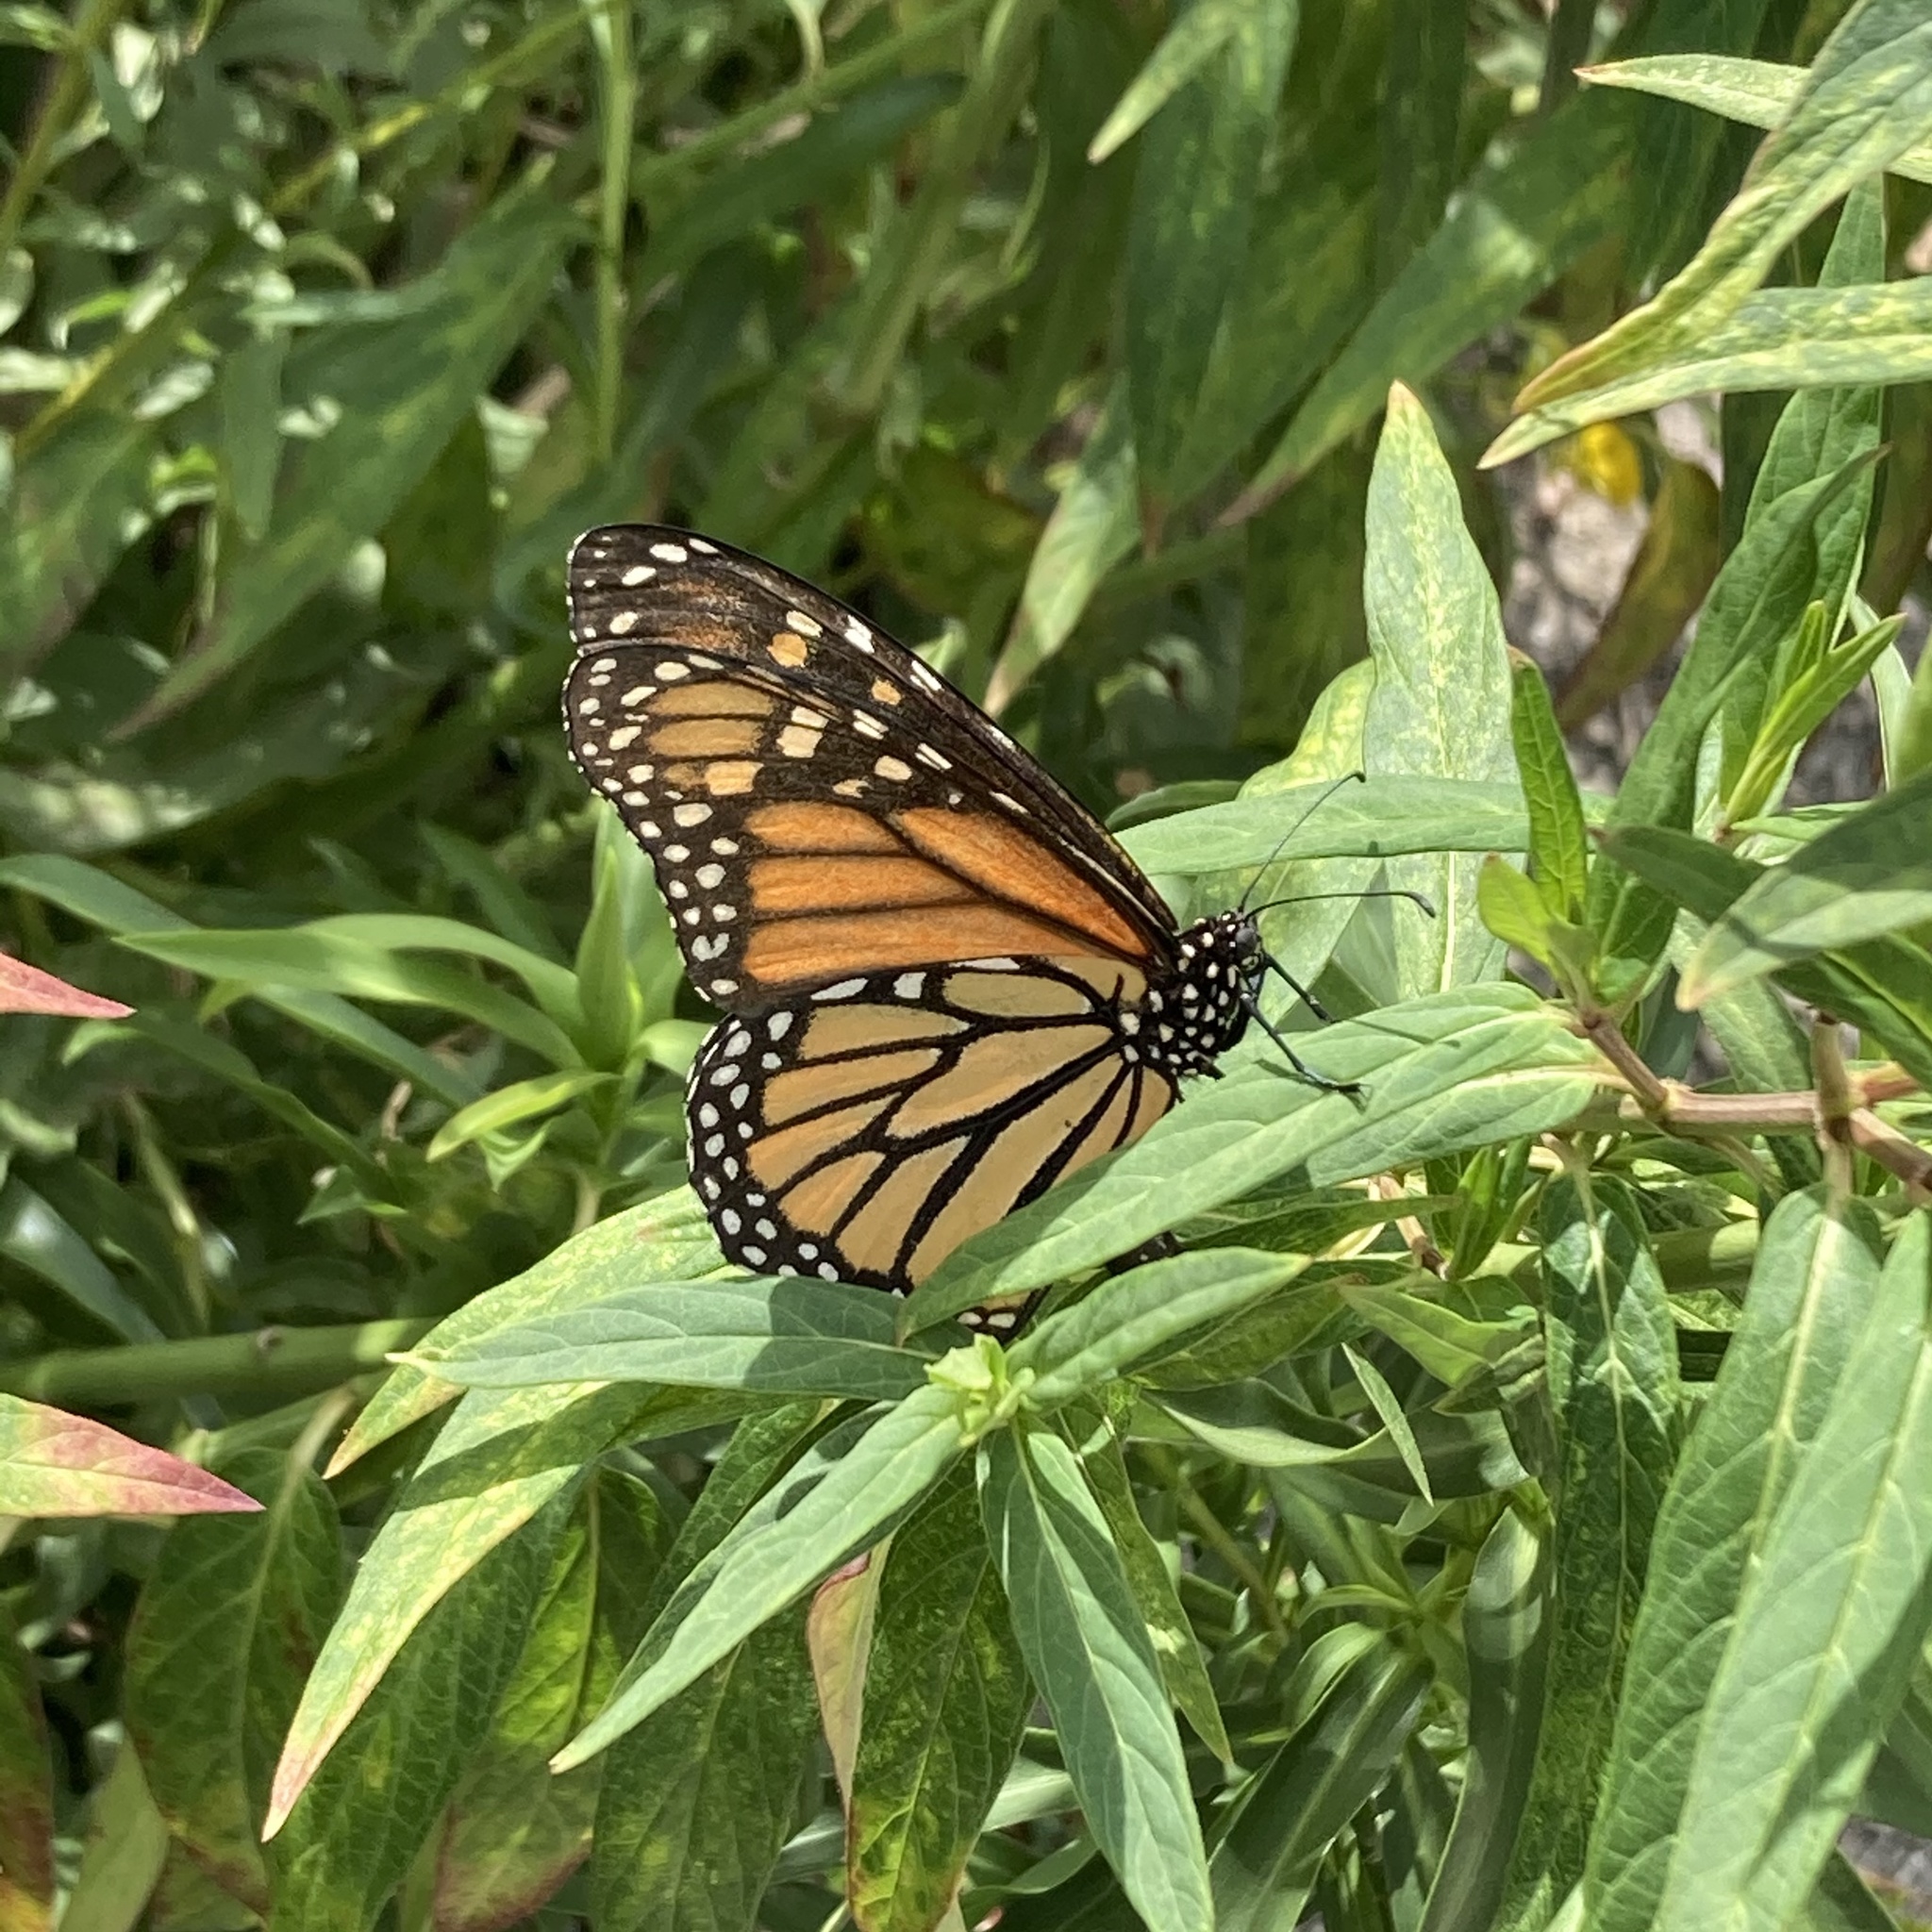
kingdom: Animalia
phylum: Arthropoda
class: Insecta
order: Lepidoptera
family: Nymphalidae
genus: Danaus
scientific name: Danaus plexippus
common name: Monarch
